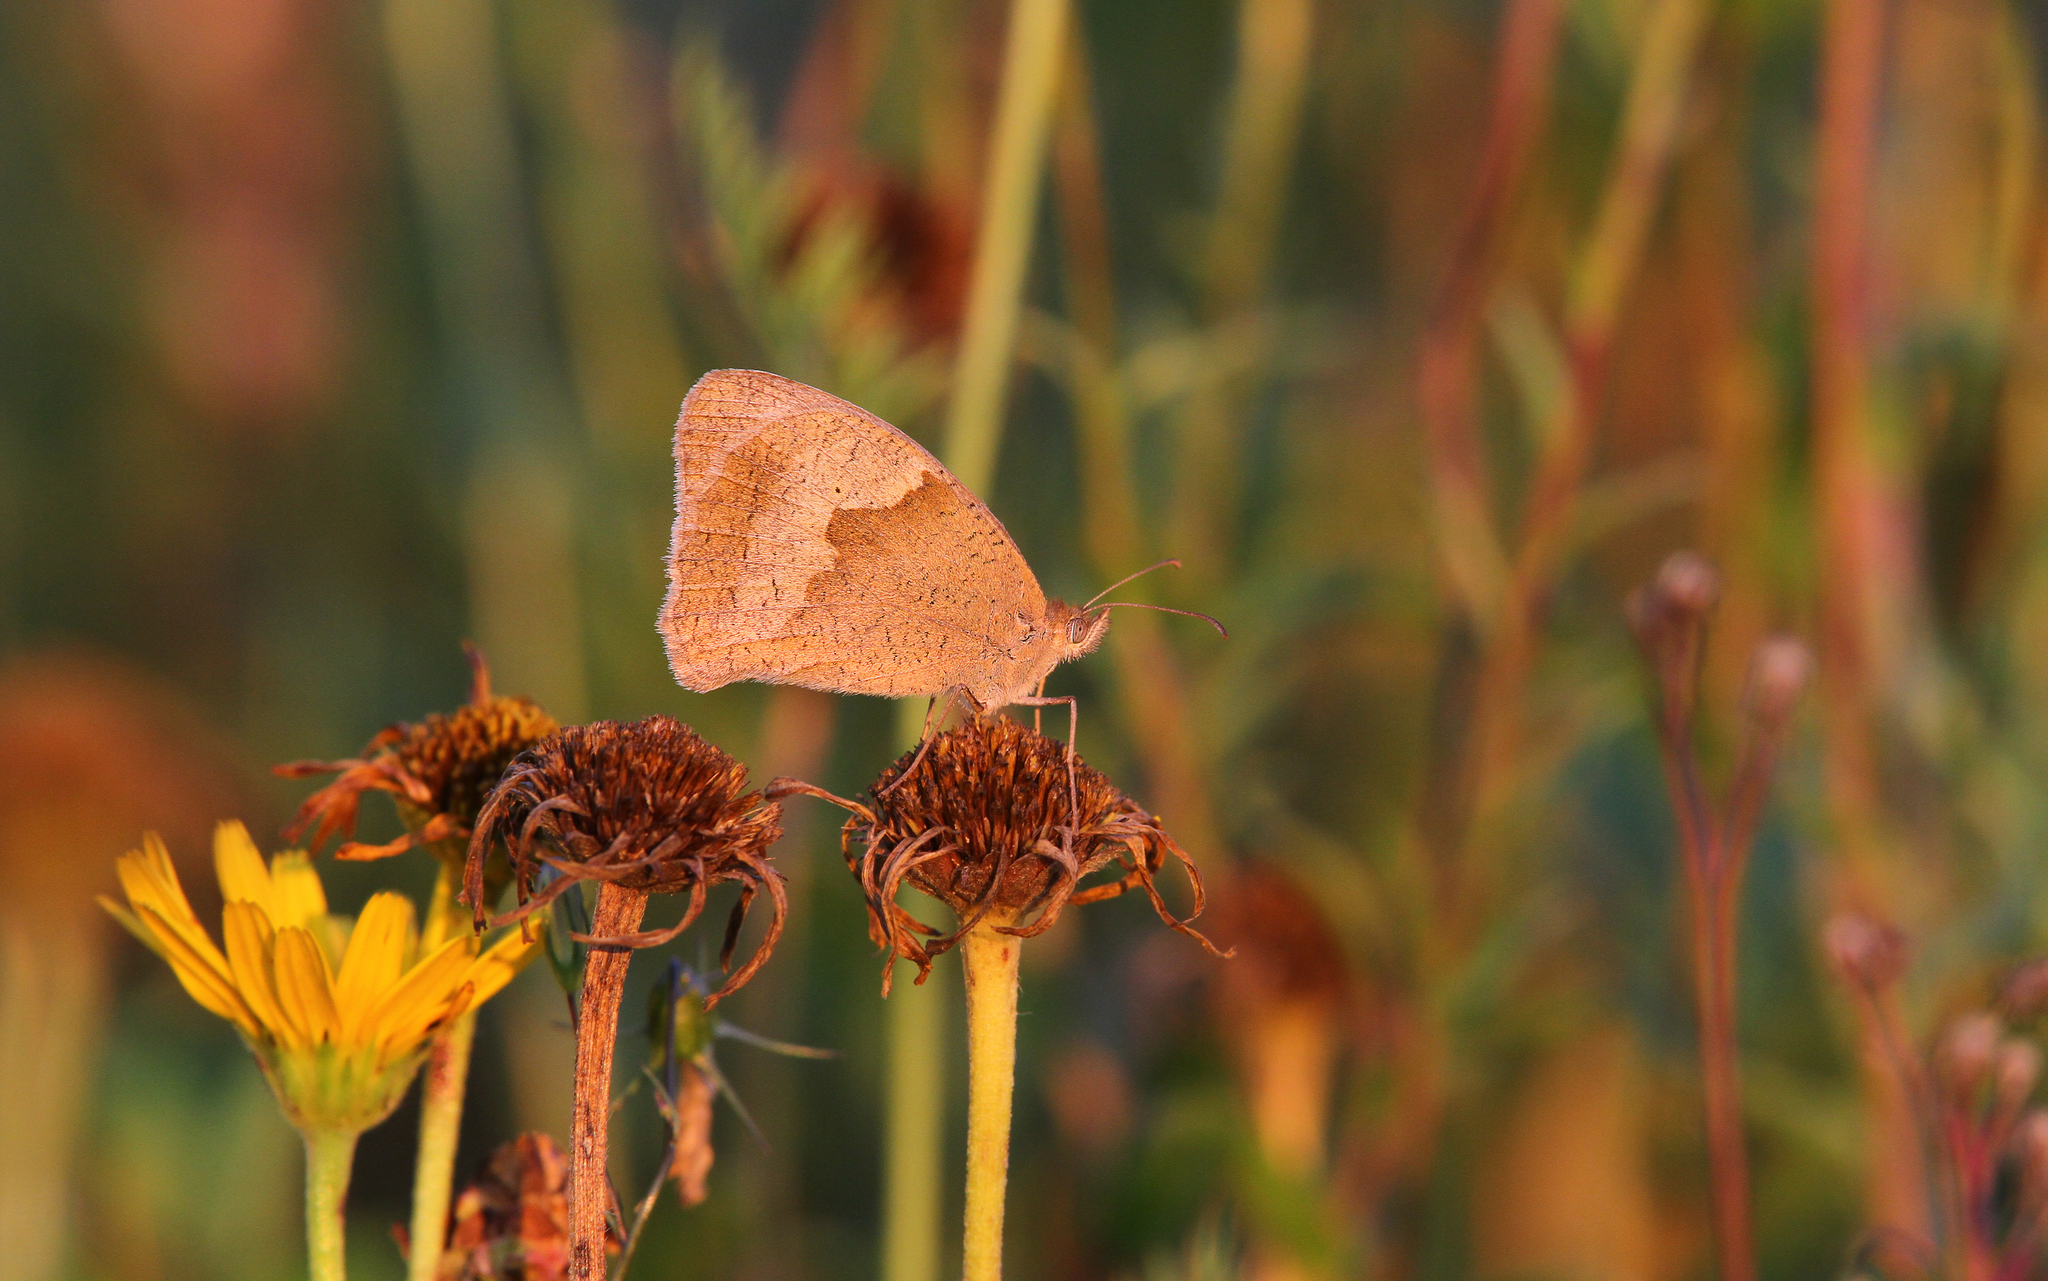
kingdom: Animalia
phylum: Arthropoda
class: Insecta
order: Lepidoptera
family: Nymphalidae
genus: Maniola
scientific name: Maniola jurtina
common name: Meadow brown
